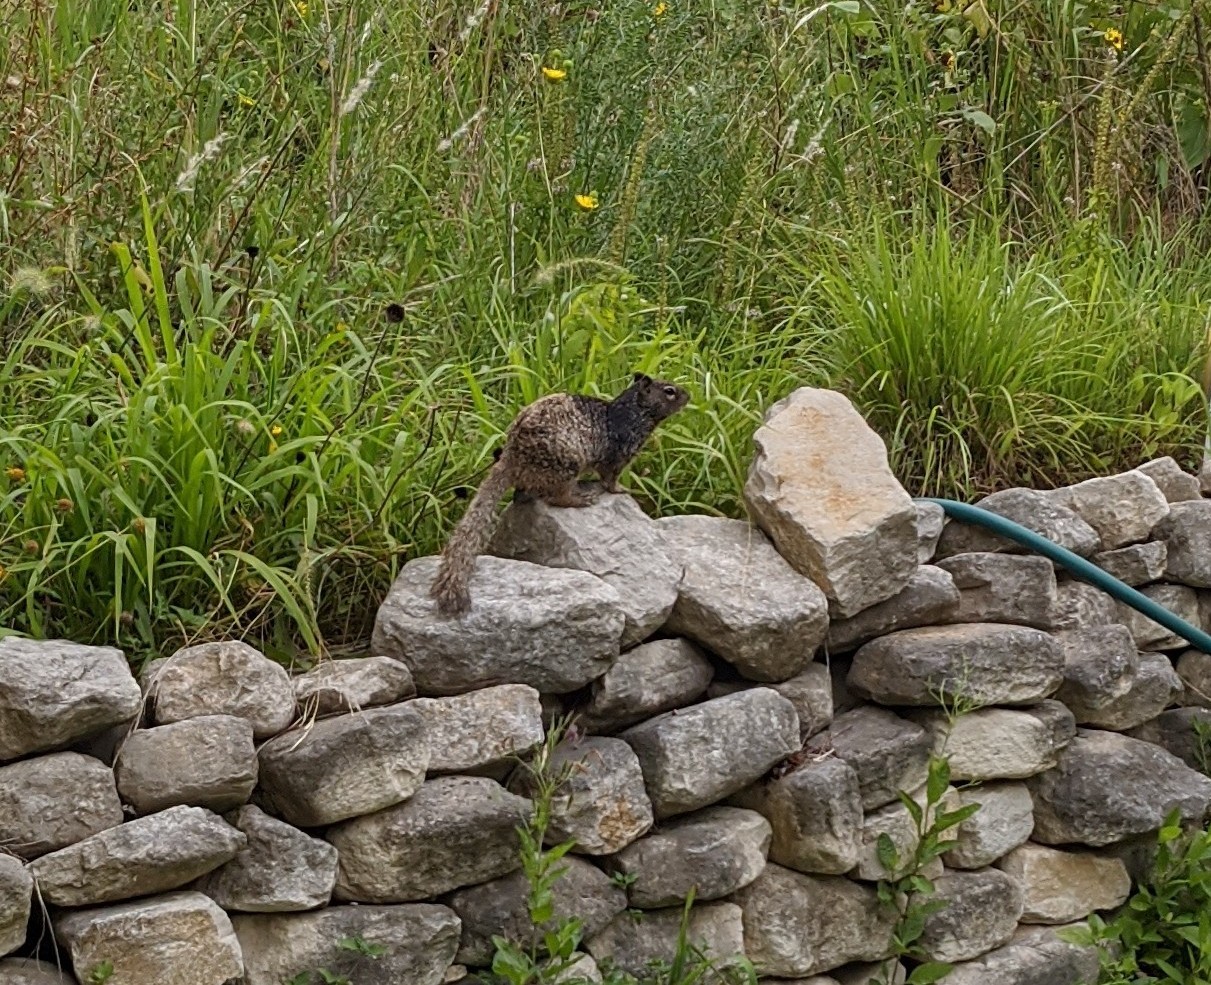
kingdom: Animalia
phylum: Chordata
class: Mammalia
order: Rodentia
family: Sciuridae
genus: Otospermophilus
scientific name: Otospermophilus variegatus
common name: Rock squirrel
